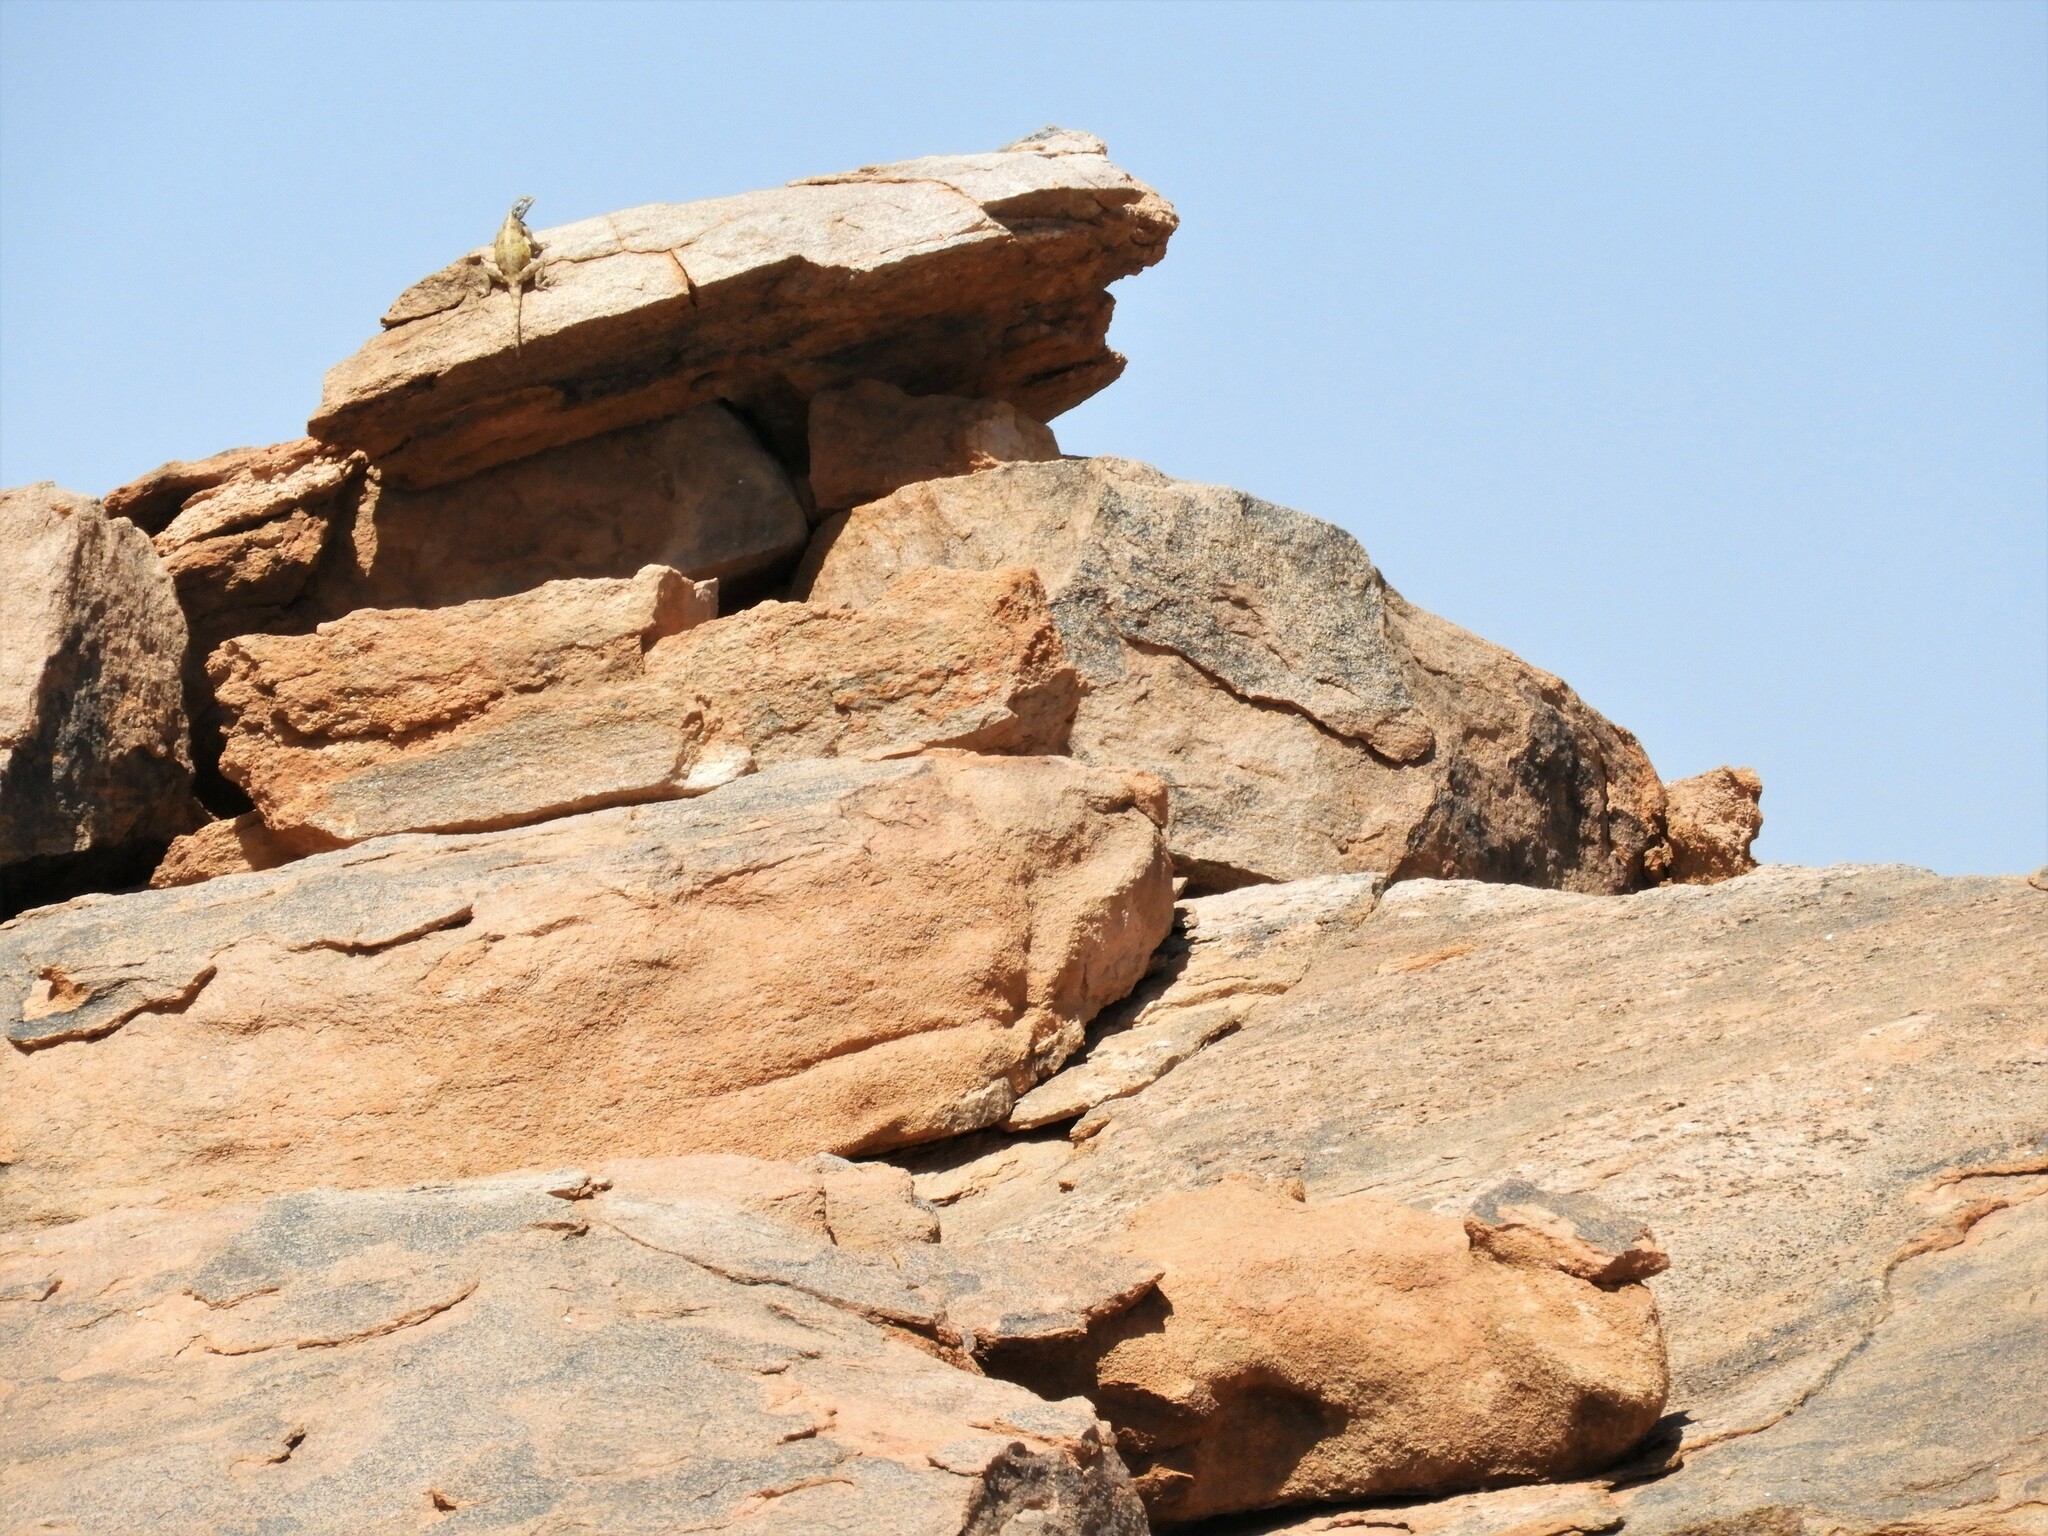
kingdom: Animalia
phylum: Chordata
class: Squamata
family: Agamidae
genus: Agama
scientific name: Agama atra
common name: Southern african rock agama
